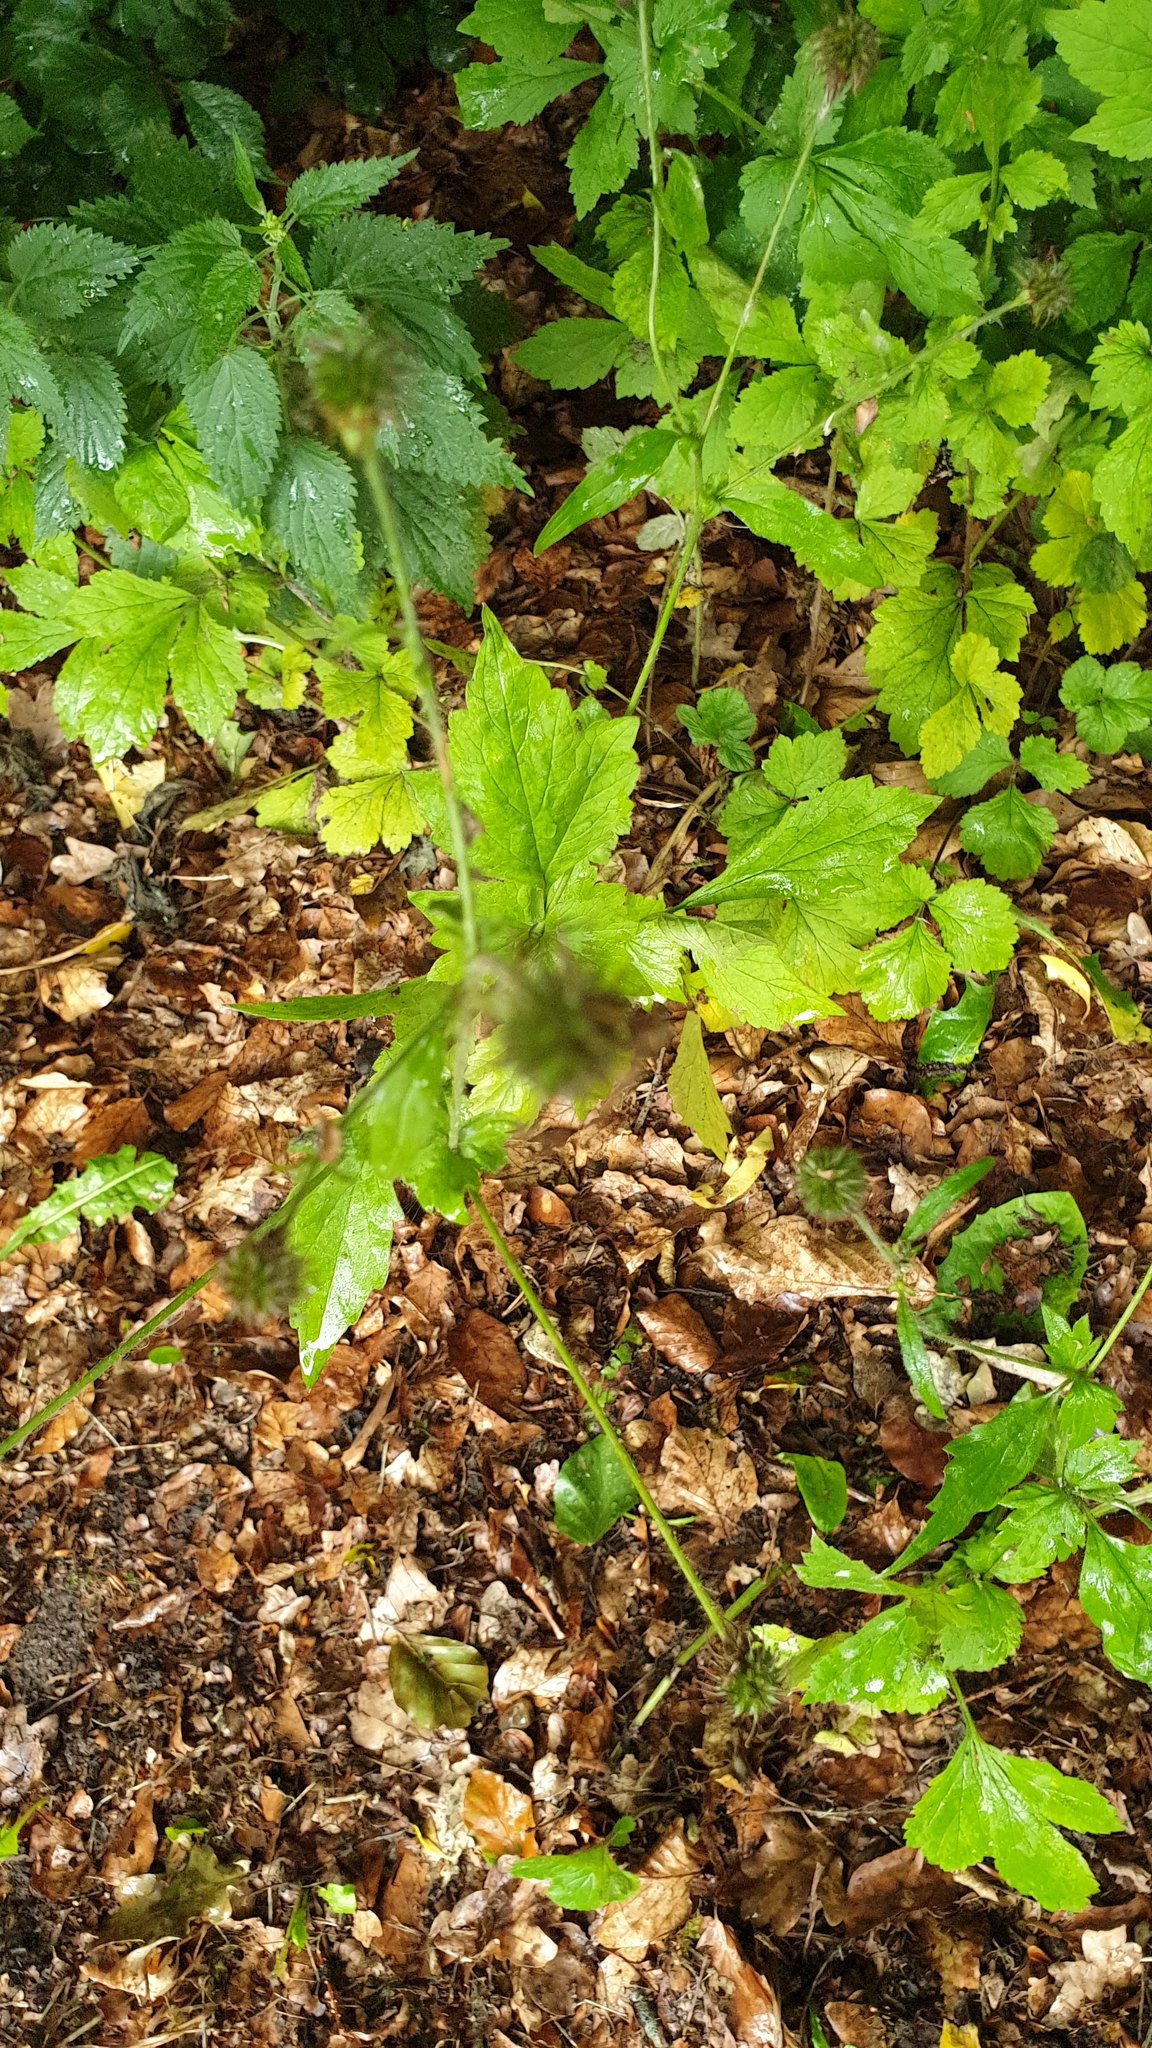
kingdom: Plantae
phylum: Tracheophyta
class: Magnoliopsida
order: Rosales
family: Rosaceae
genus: Geum
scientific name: Geum urbanum
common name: Wood avens
